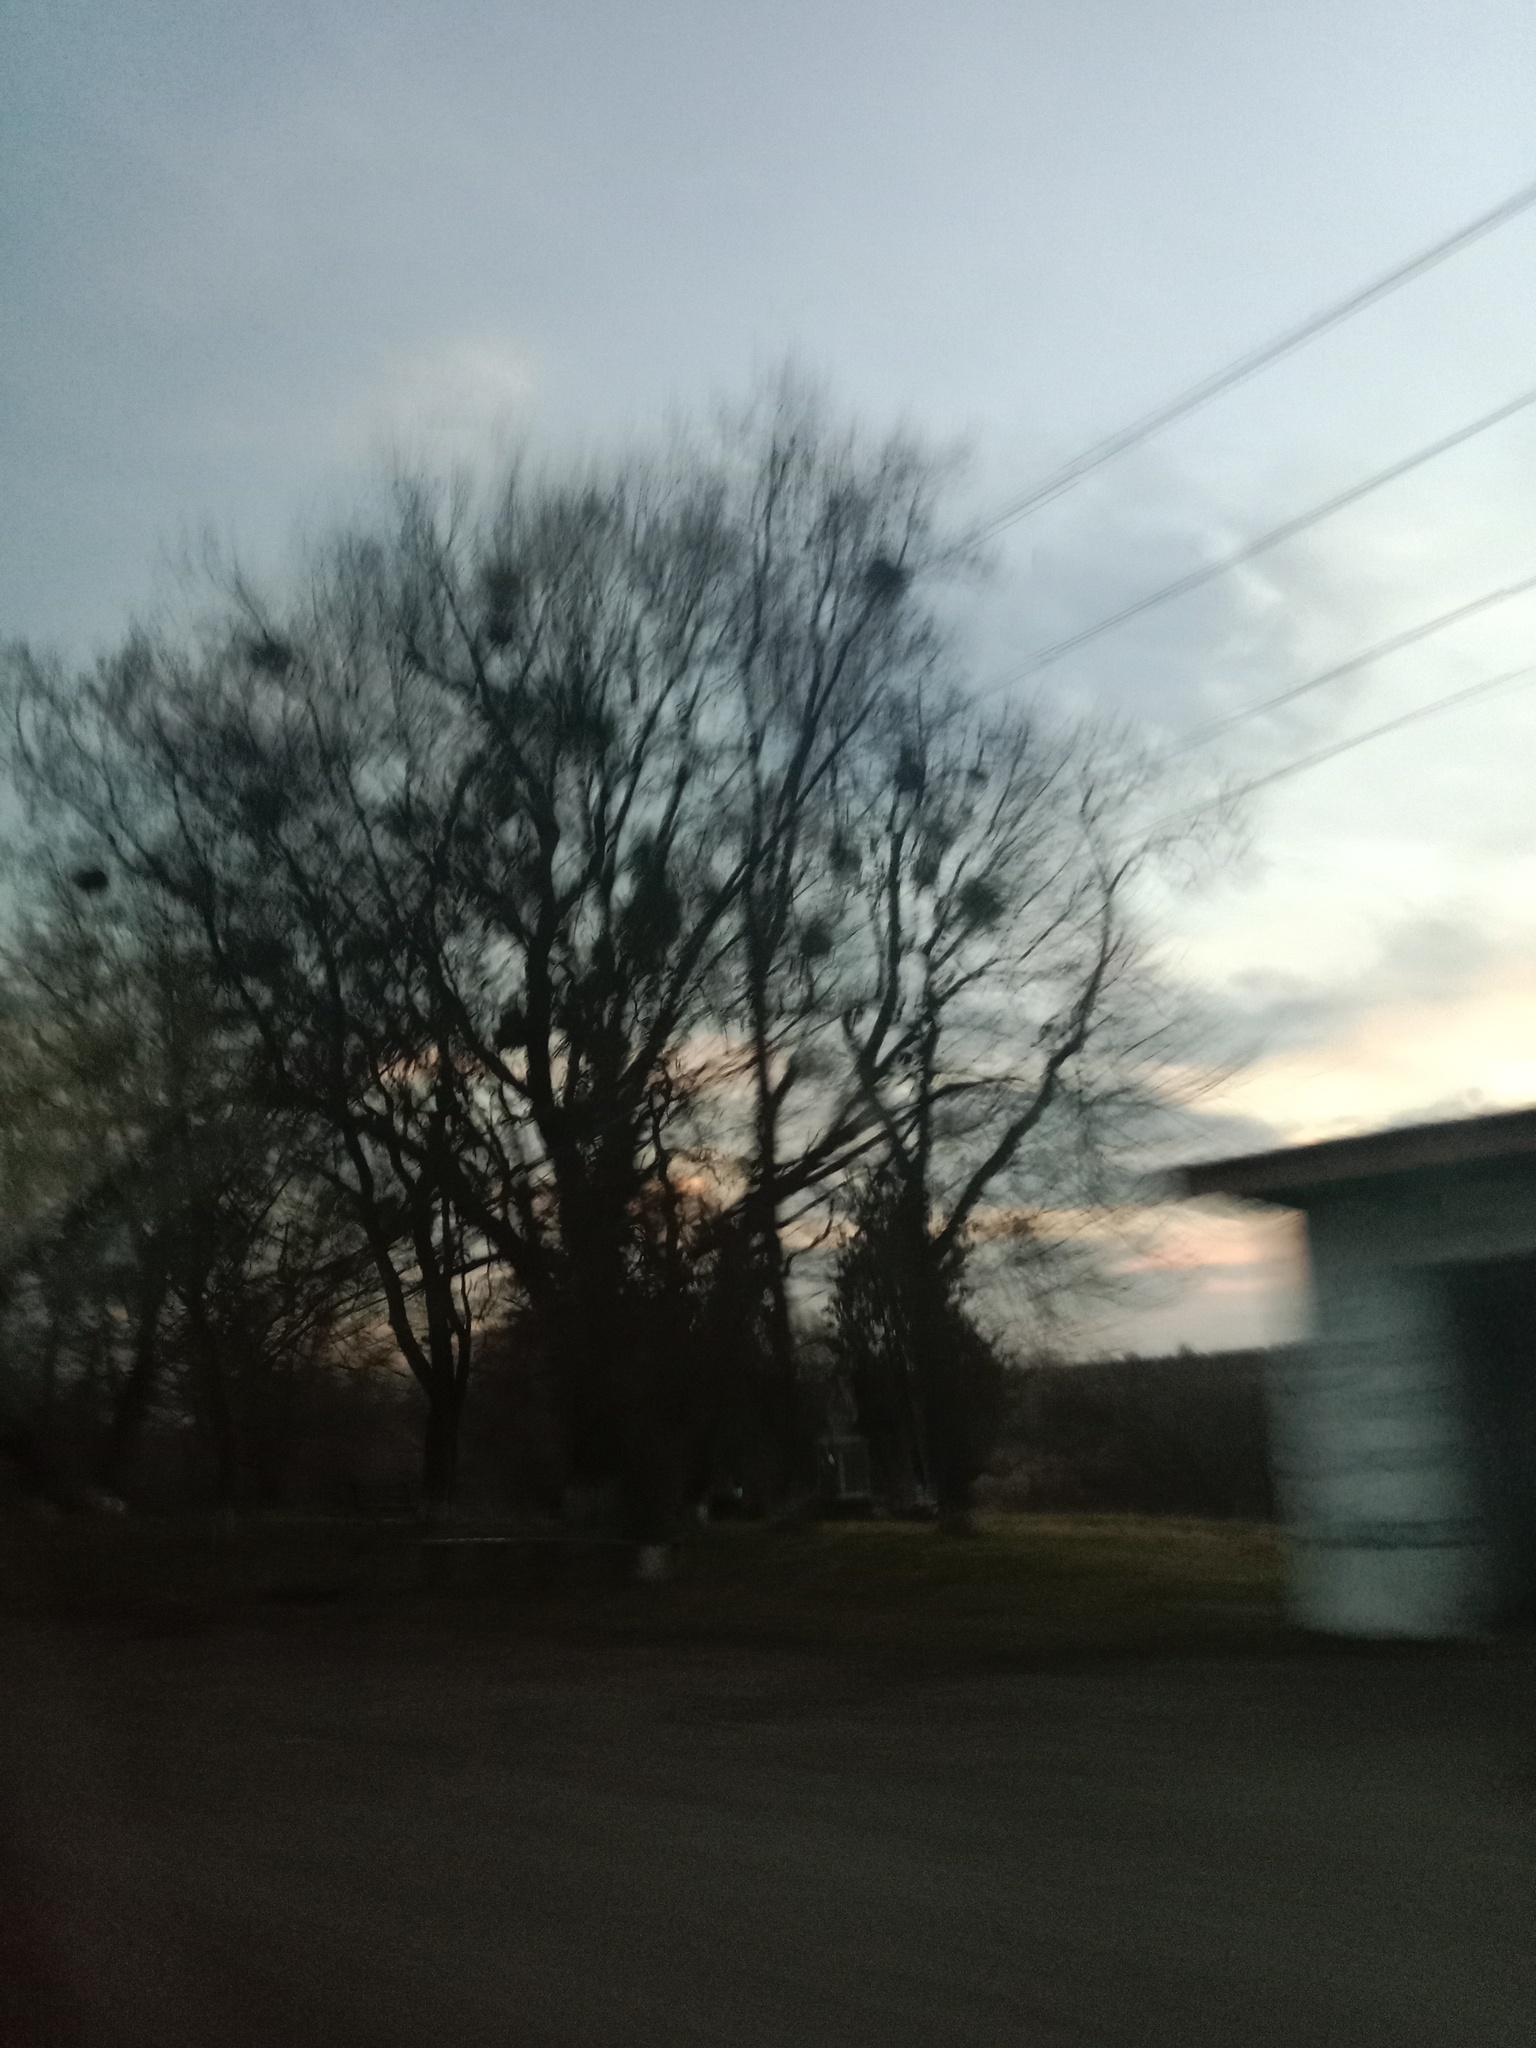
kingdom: Plantae
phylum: Tracheophyta
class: Magnoliopsida
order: Santalales
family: Viscaceae
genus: Viscum
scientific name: Viscum album
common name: Mistletoe
